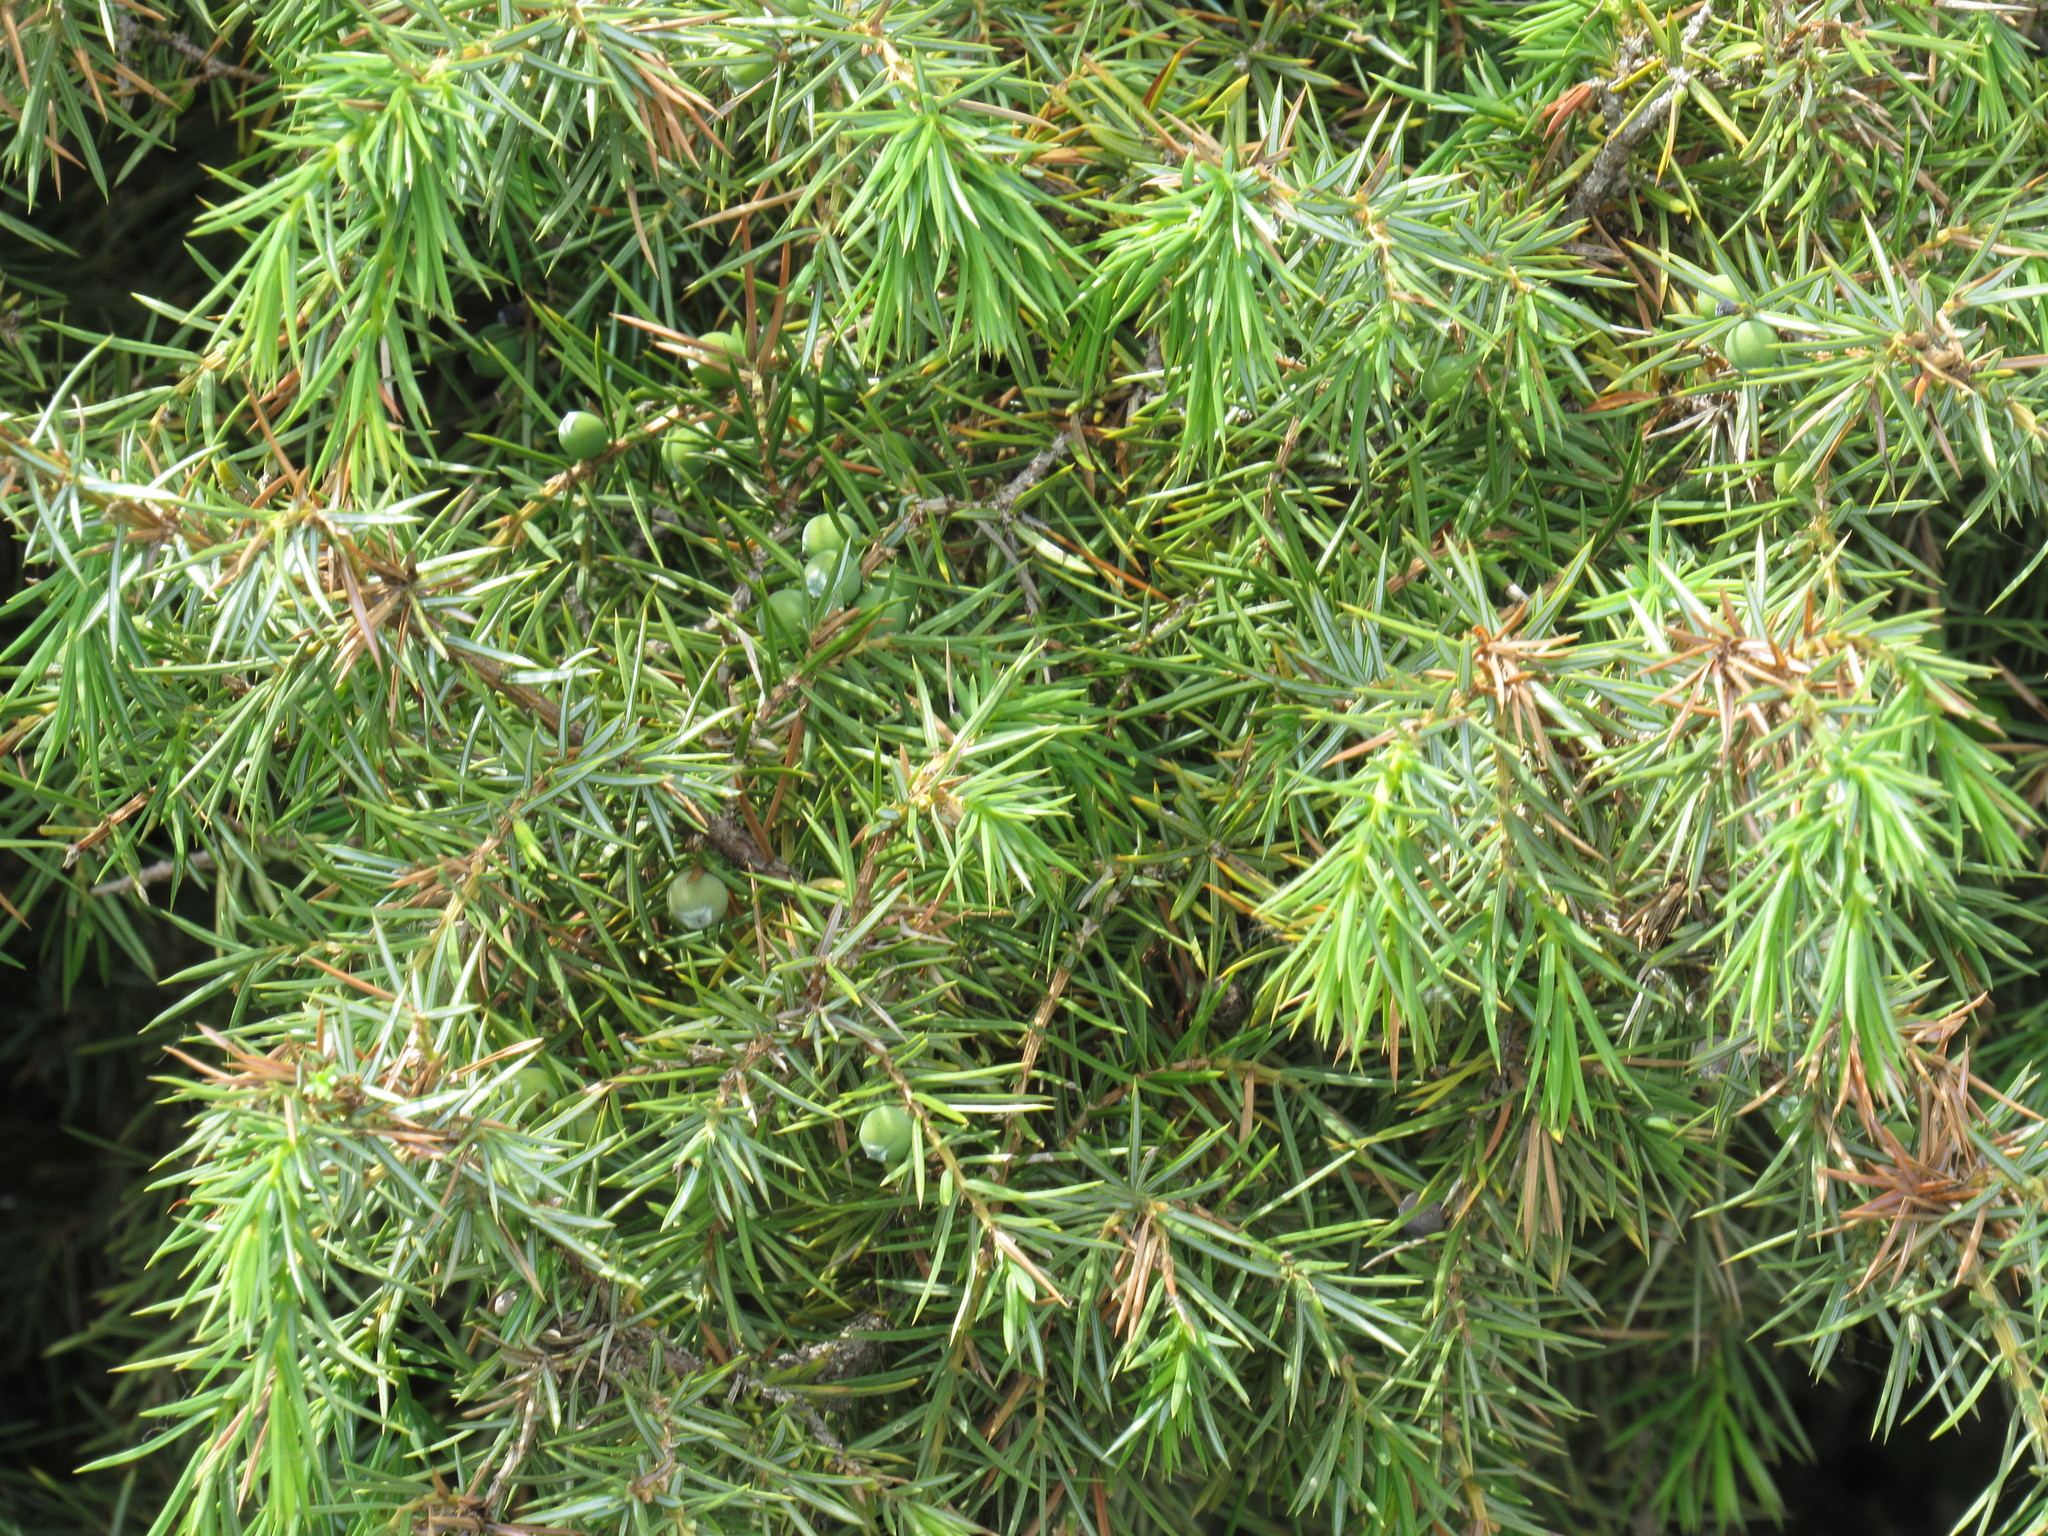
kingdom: Plantae
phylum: Tracheophyta
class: Pinopsida
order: Pinales
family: Cupressaceae
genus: Juniperus
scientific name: Juniperus communis
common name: Common juniper
